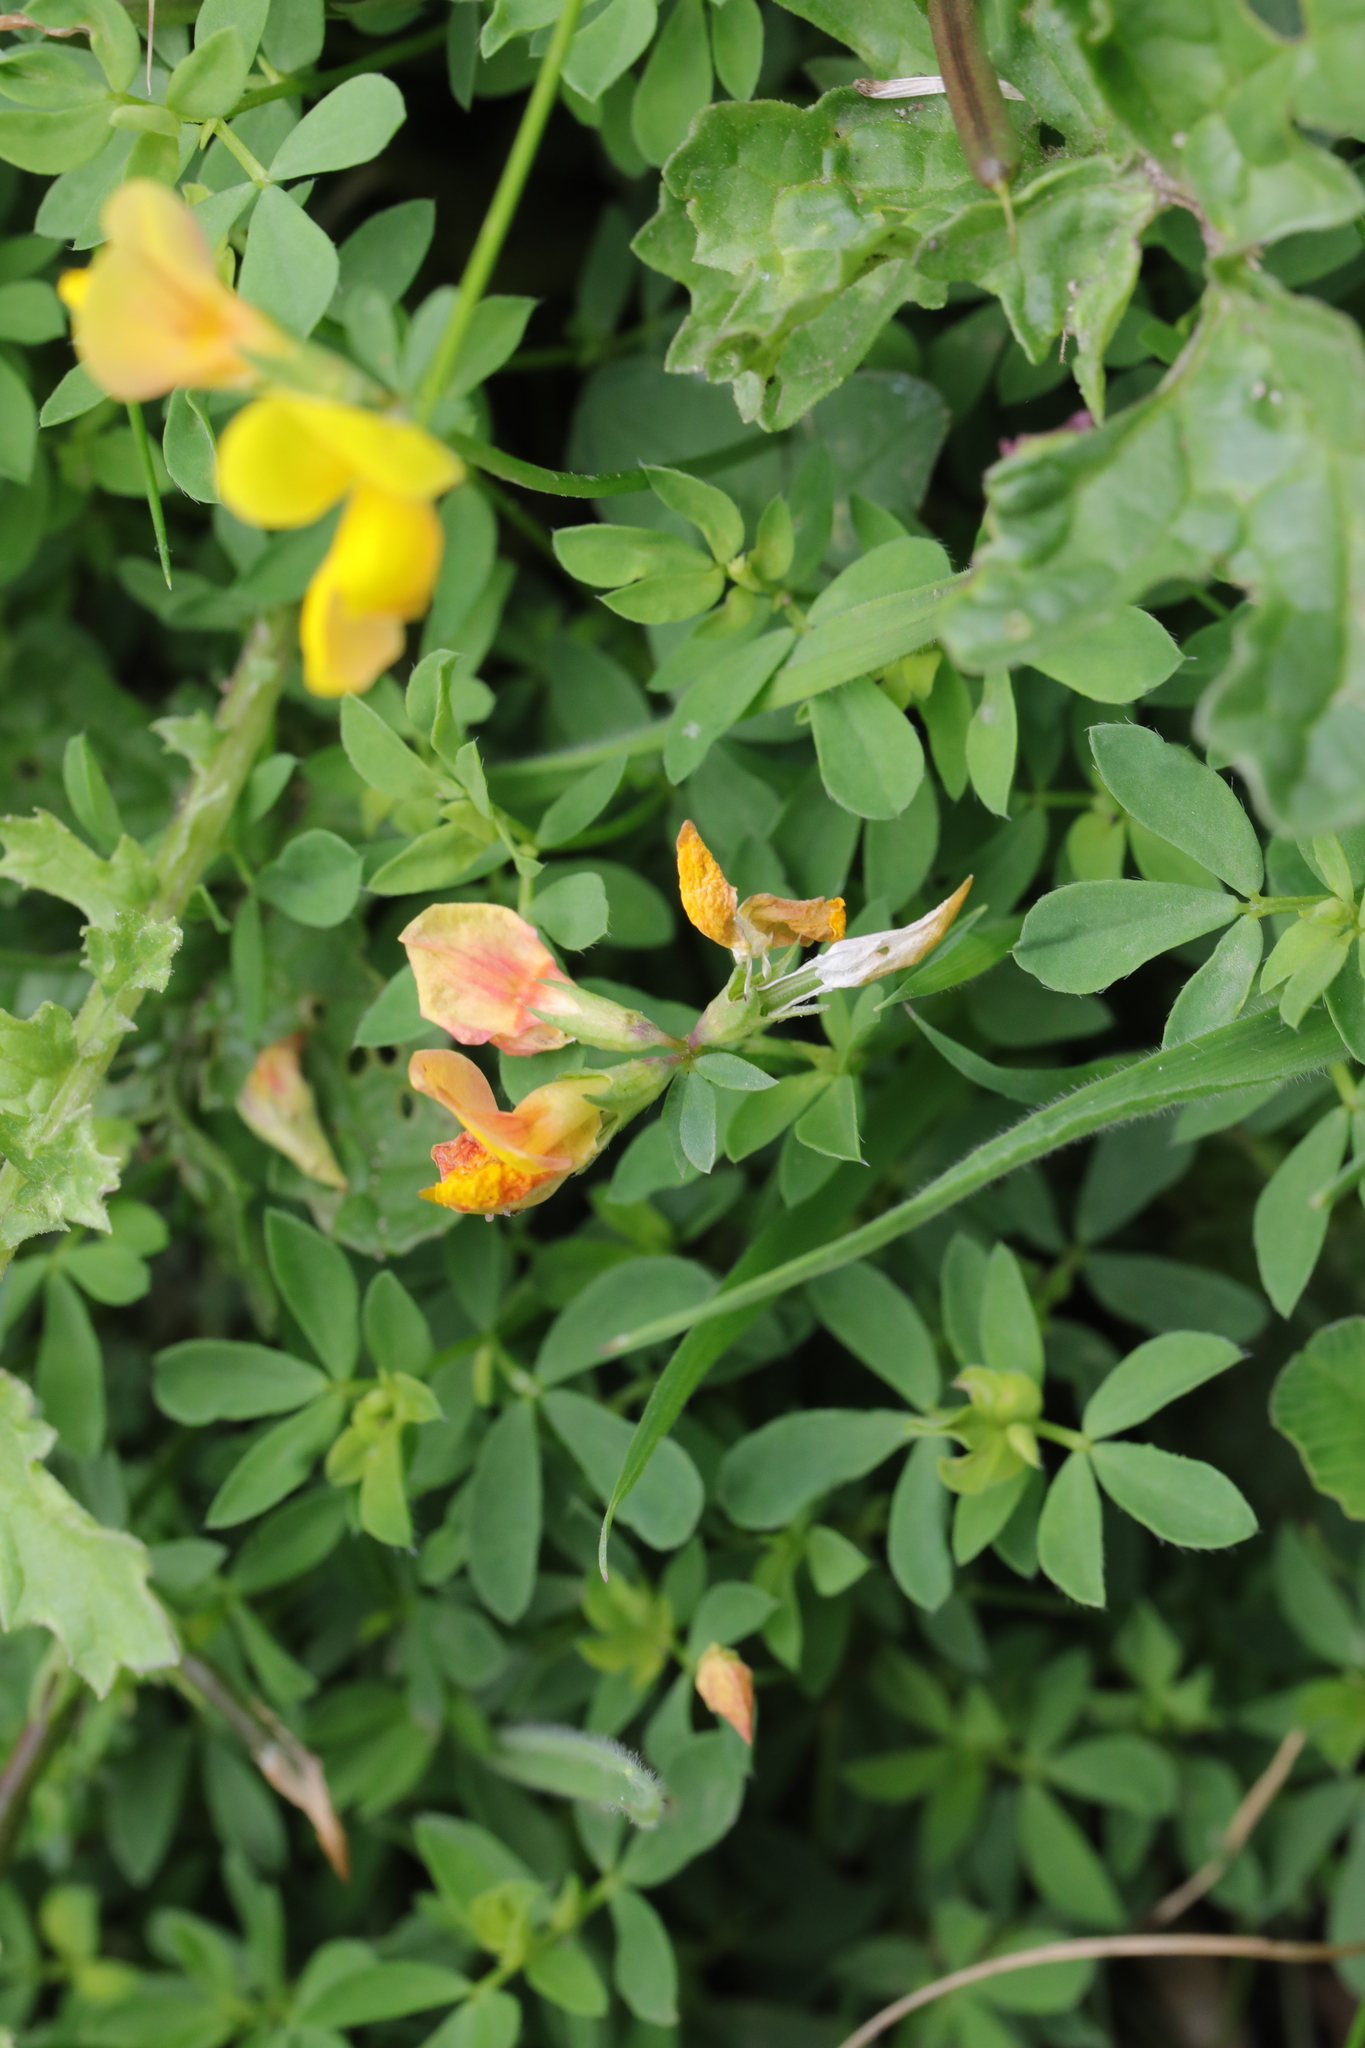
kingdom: Plantae
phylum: Tracheophyta
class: Magnoliopsida
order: Fabales
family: Fabaceae
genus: Lotus
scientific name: Lotus corniculatus
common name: Common bird's-foot-trefoil
